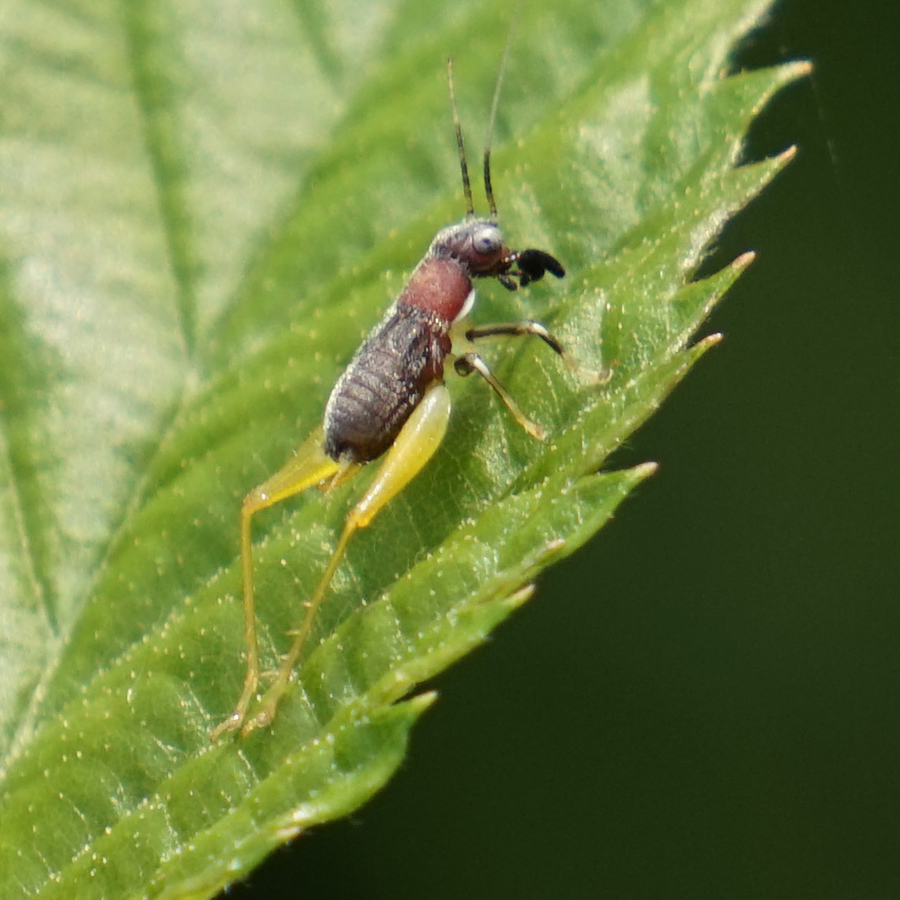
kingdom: Animalia
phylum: Arthropoda
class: Insecta
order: Orthoptera
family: Trigonidiidae
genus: Phyllopalpus
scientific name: Phyllopalpus pulchellus
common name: Handsome trig
